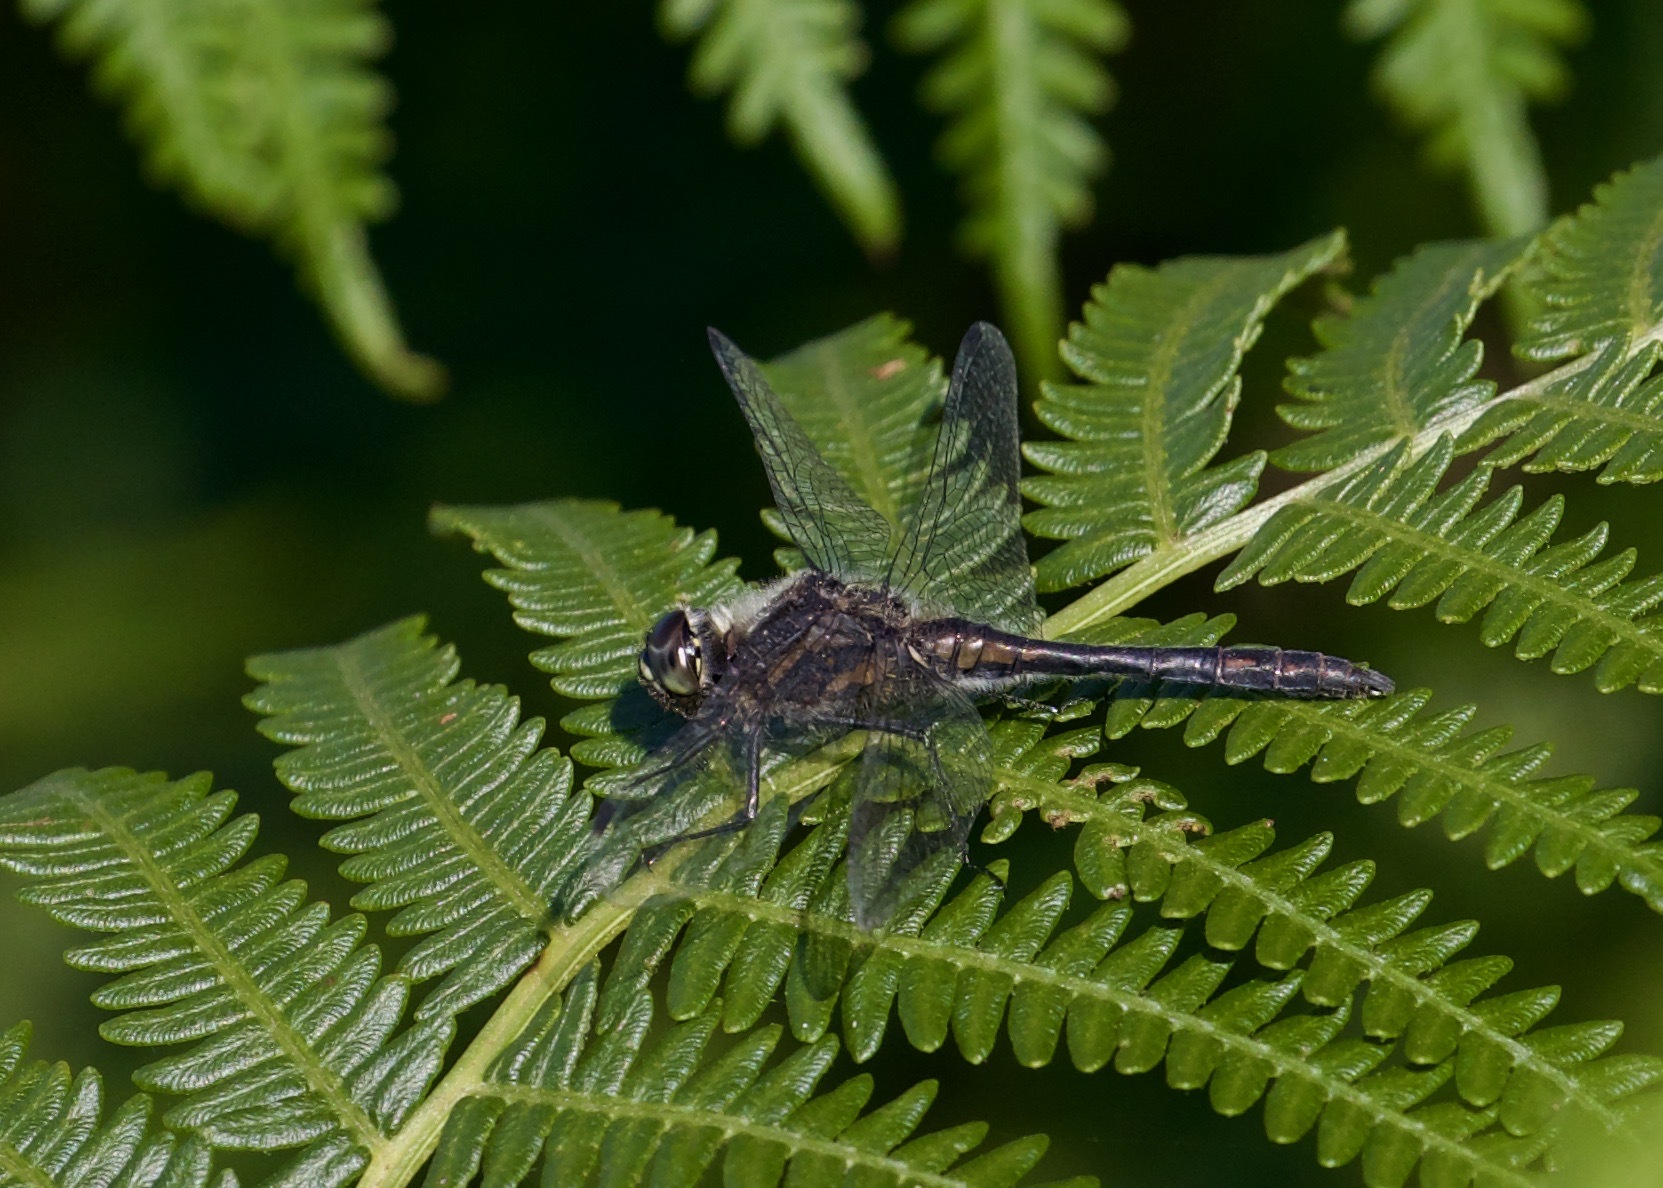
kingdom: Animalia
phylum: Arthropoda
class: Insecta
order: Odonata
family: Libellulidae
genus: Sympetrum
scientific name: Sympetrum danae
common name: Black darter
